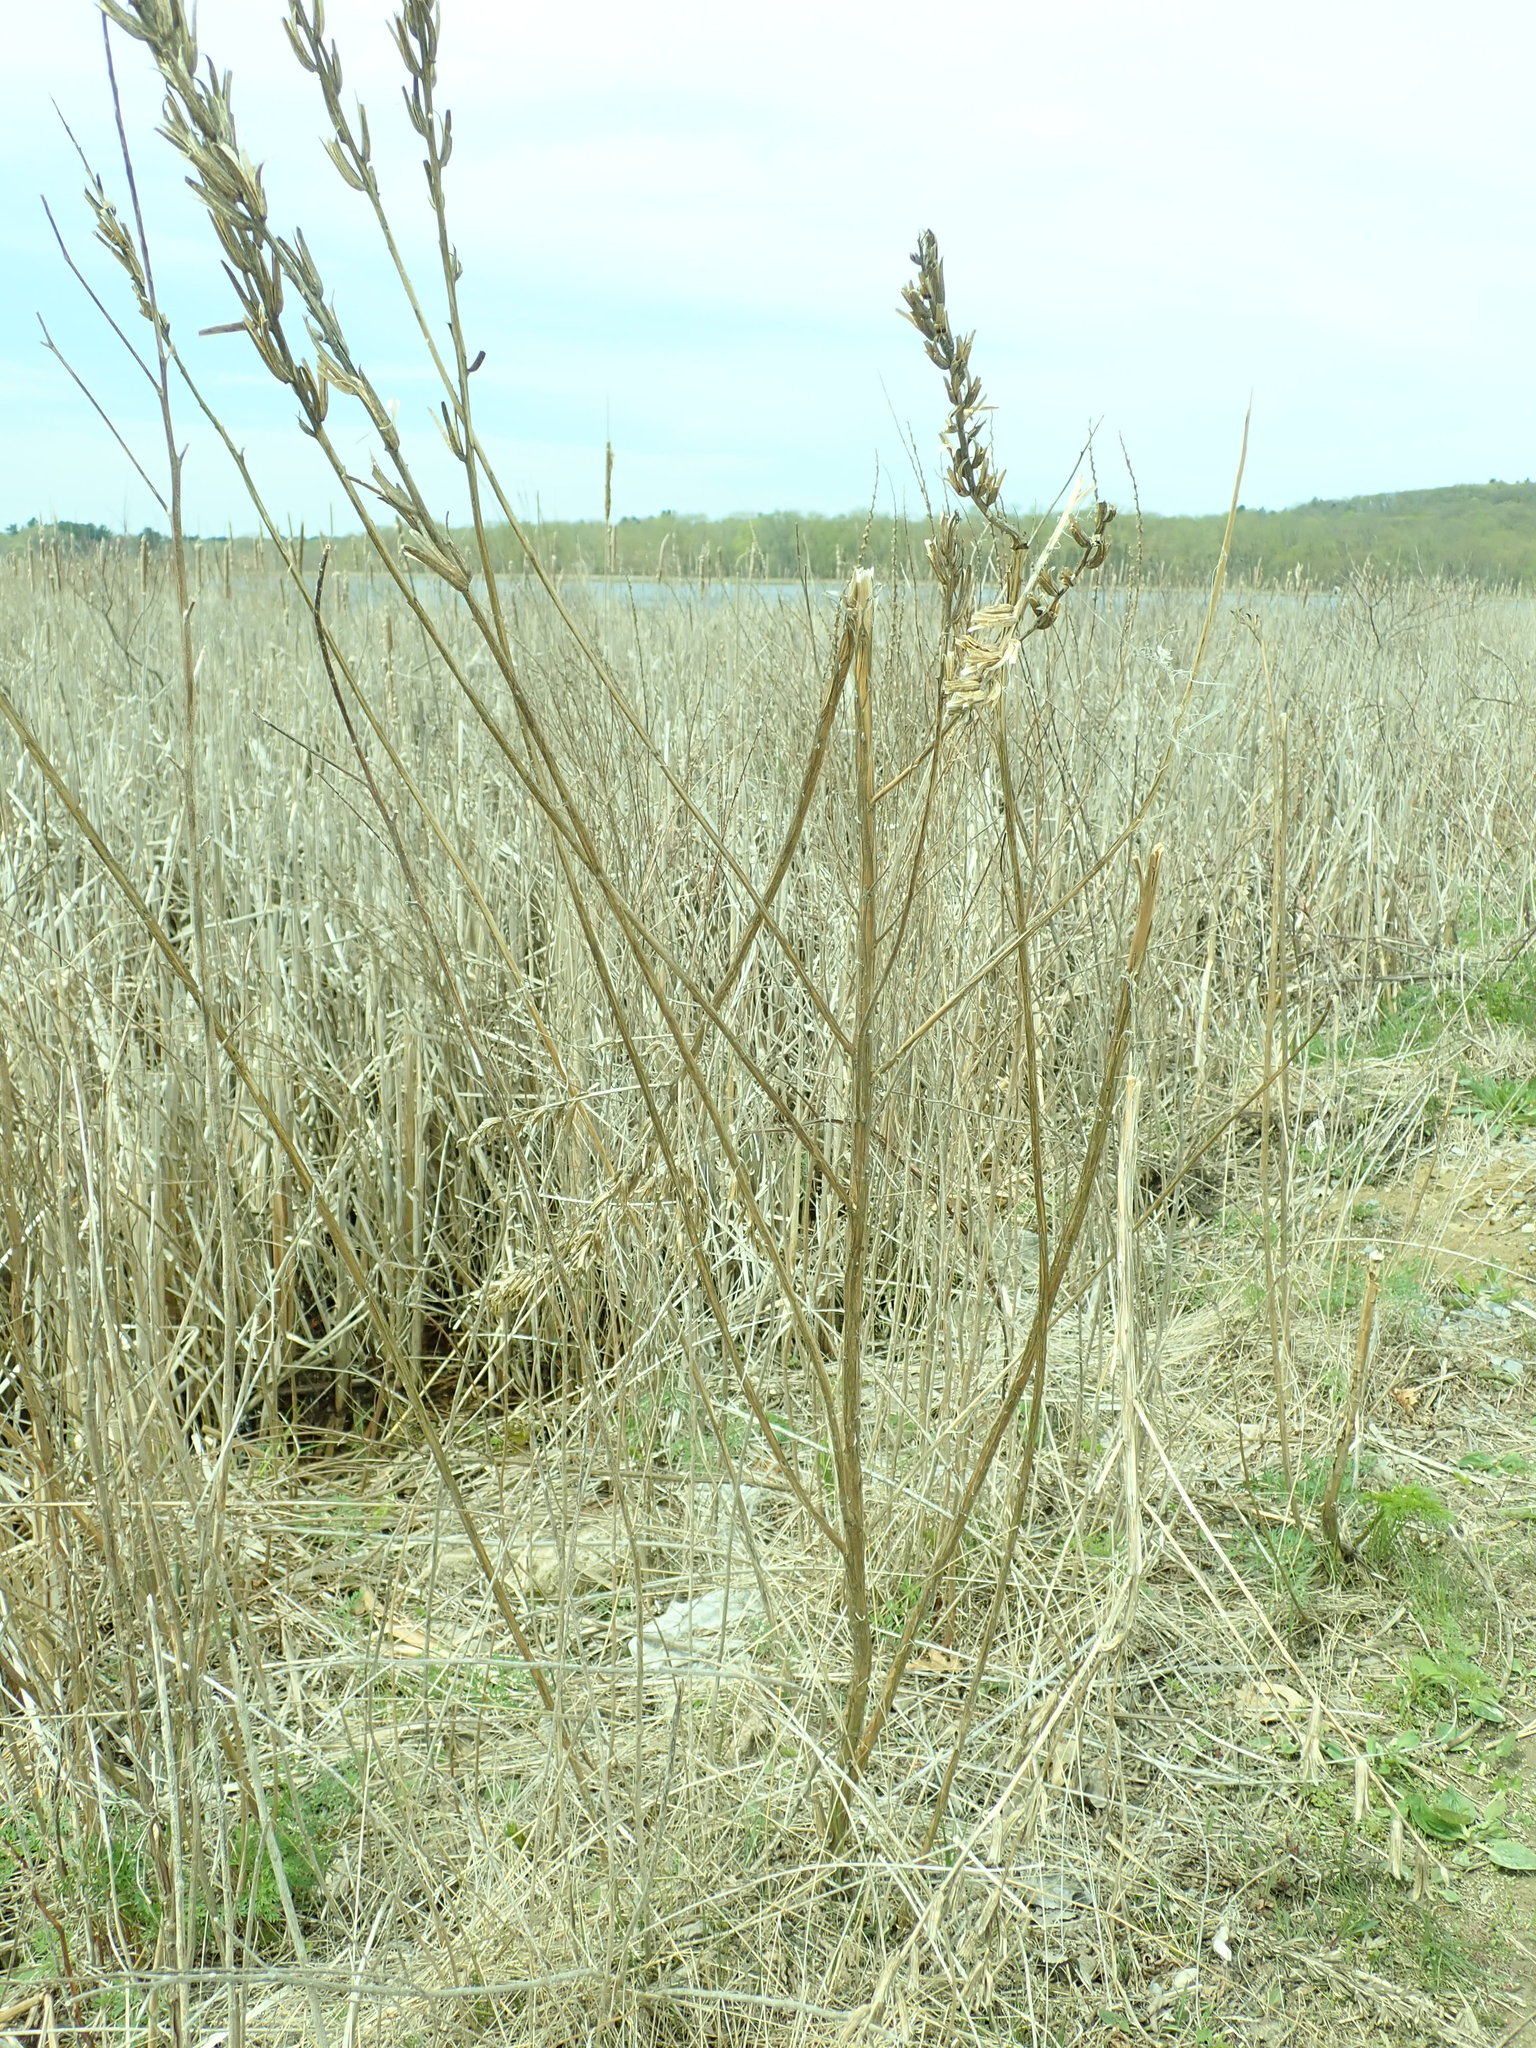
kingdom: Plantae
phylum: Tracheophyta
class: Magnoliopsida
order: Myrtales
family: Onagraceae
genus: Oenothera
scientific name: Oenothera biennis
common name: Common evening-primrose
